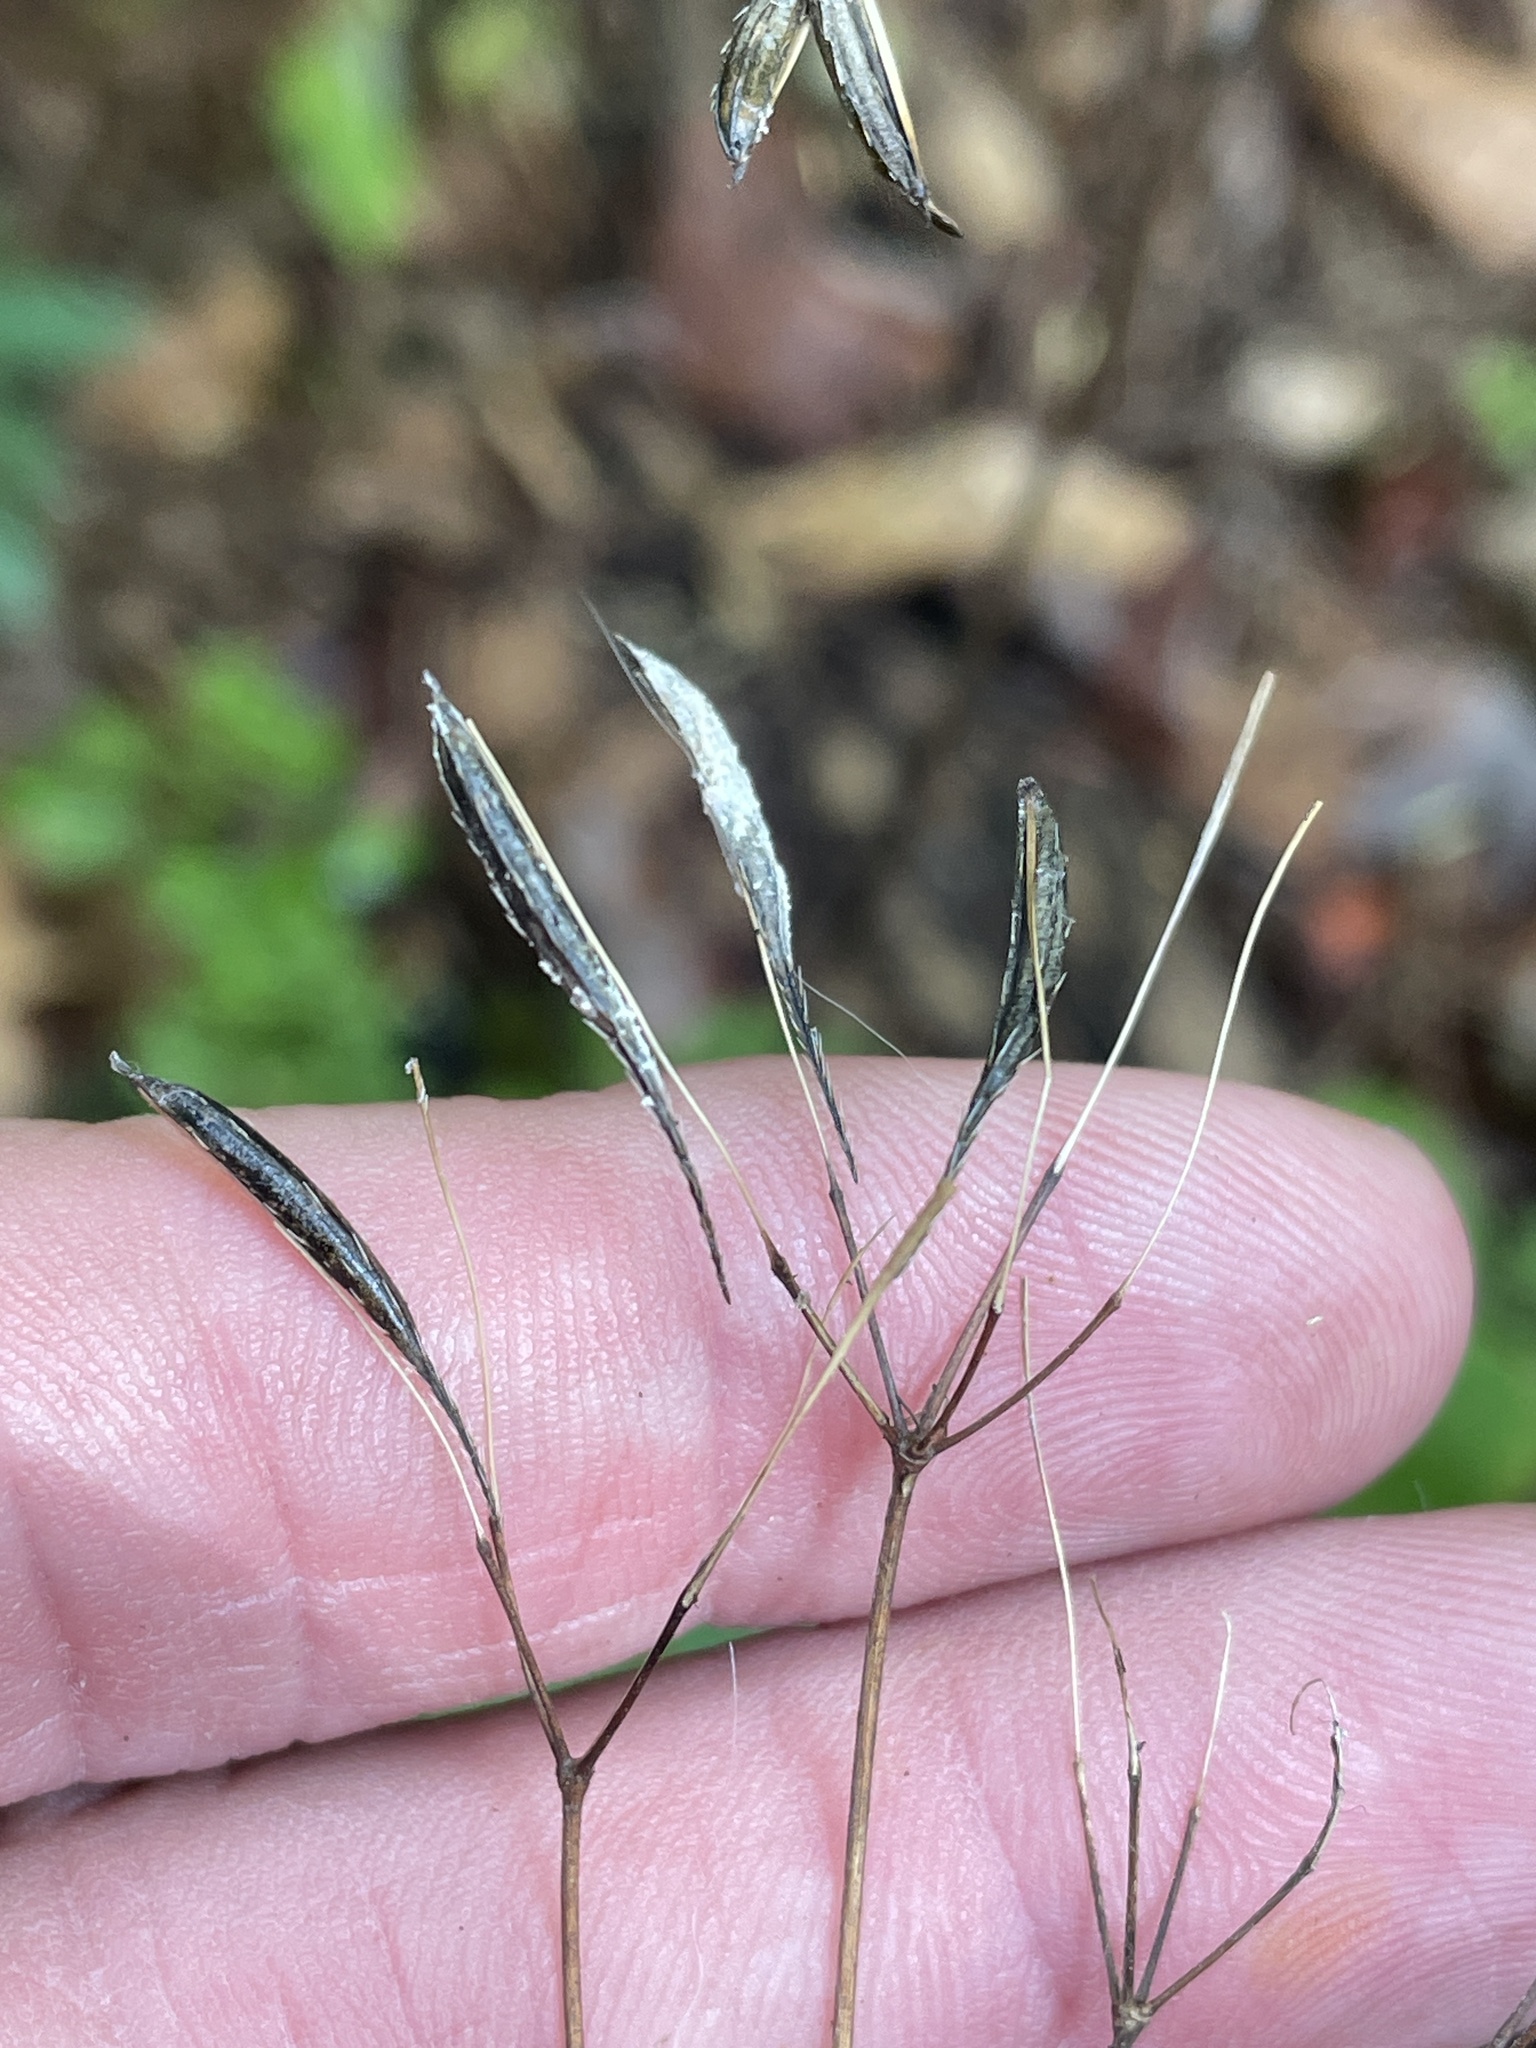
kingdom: Plantae
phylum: Tracheophyta
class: Magnoliopsida
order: Apiales
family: Apiaceae
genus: Osmorhiza
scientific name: Osmorhiza longistylis
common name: Smooth sweet cicely
